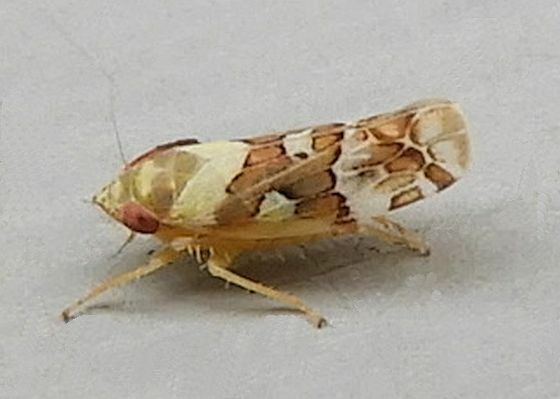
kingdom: Animalia
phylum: Arthropoda
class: Insecta
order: Hemiptera
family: Cicadellidae
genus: Sanctanus
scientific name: Sanctanus sanctus
